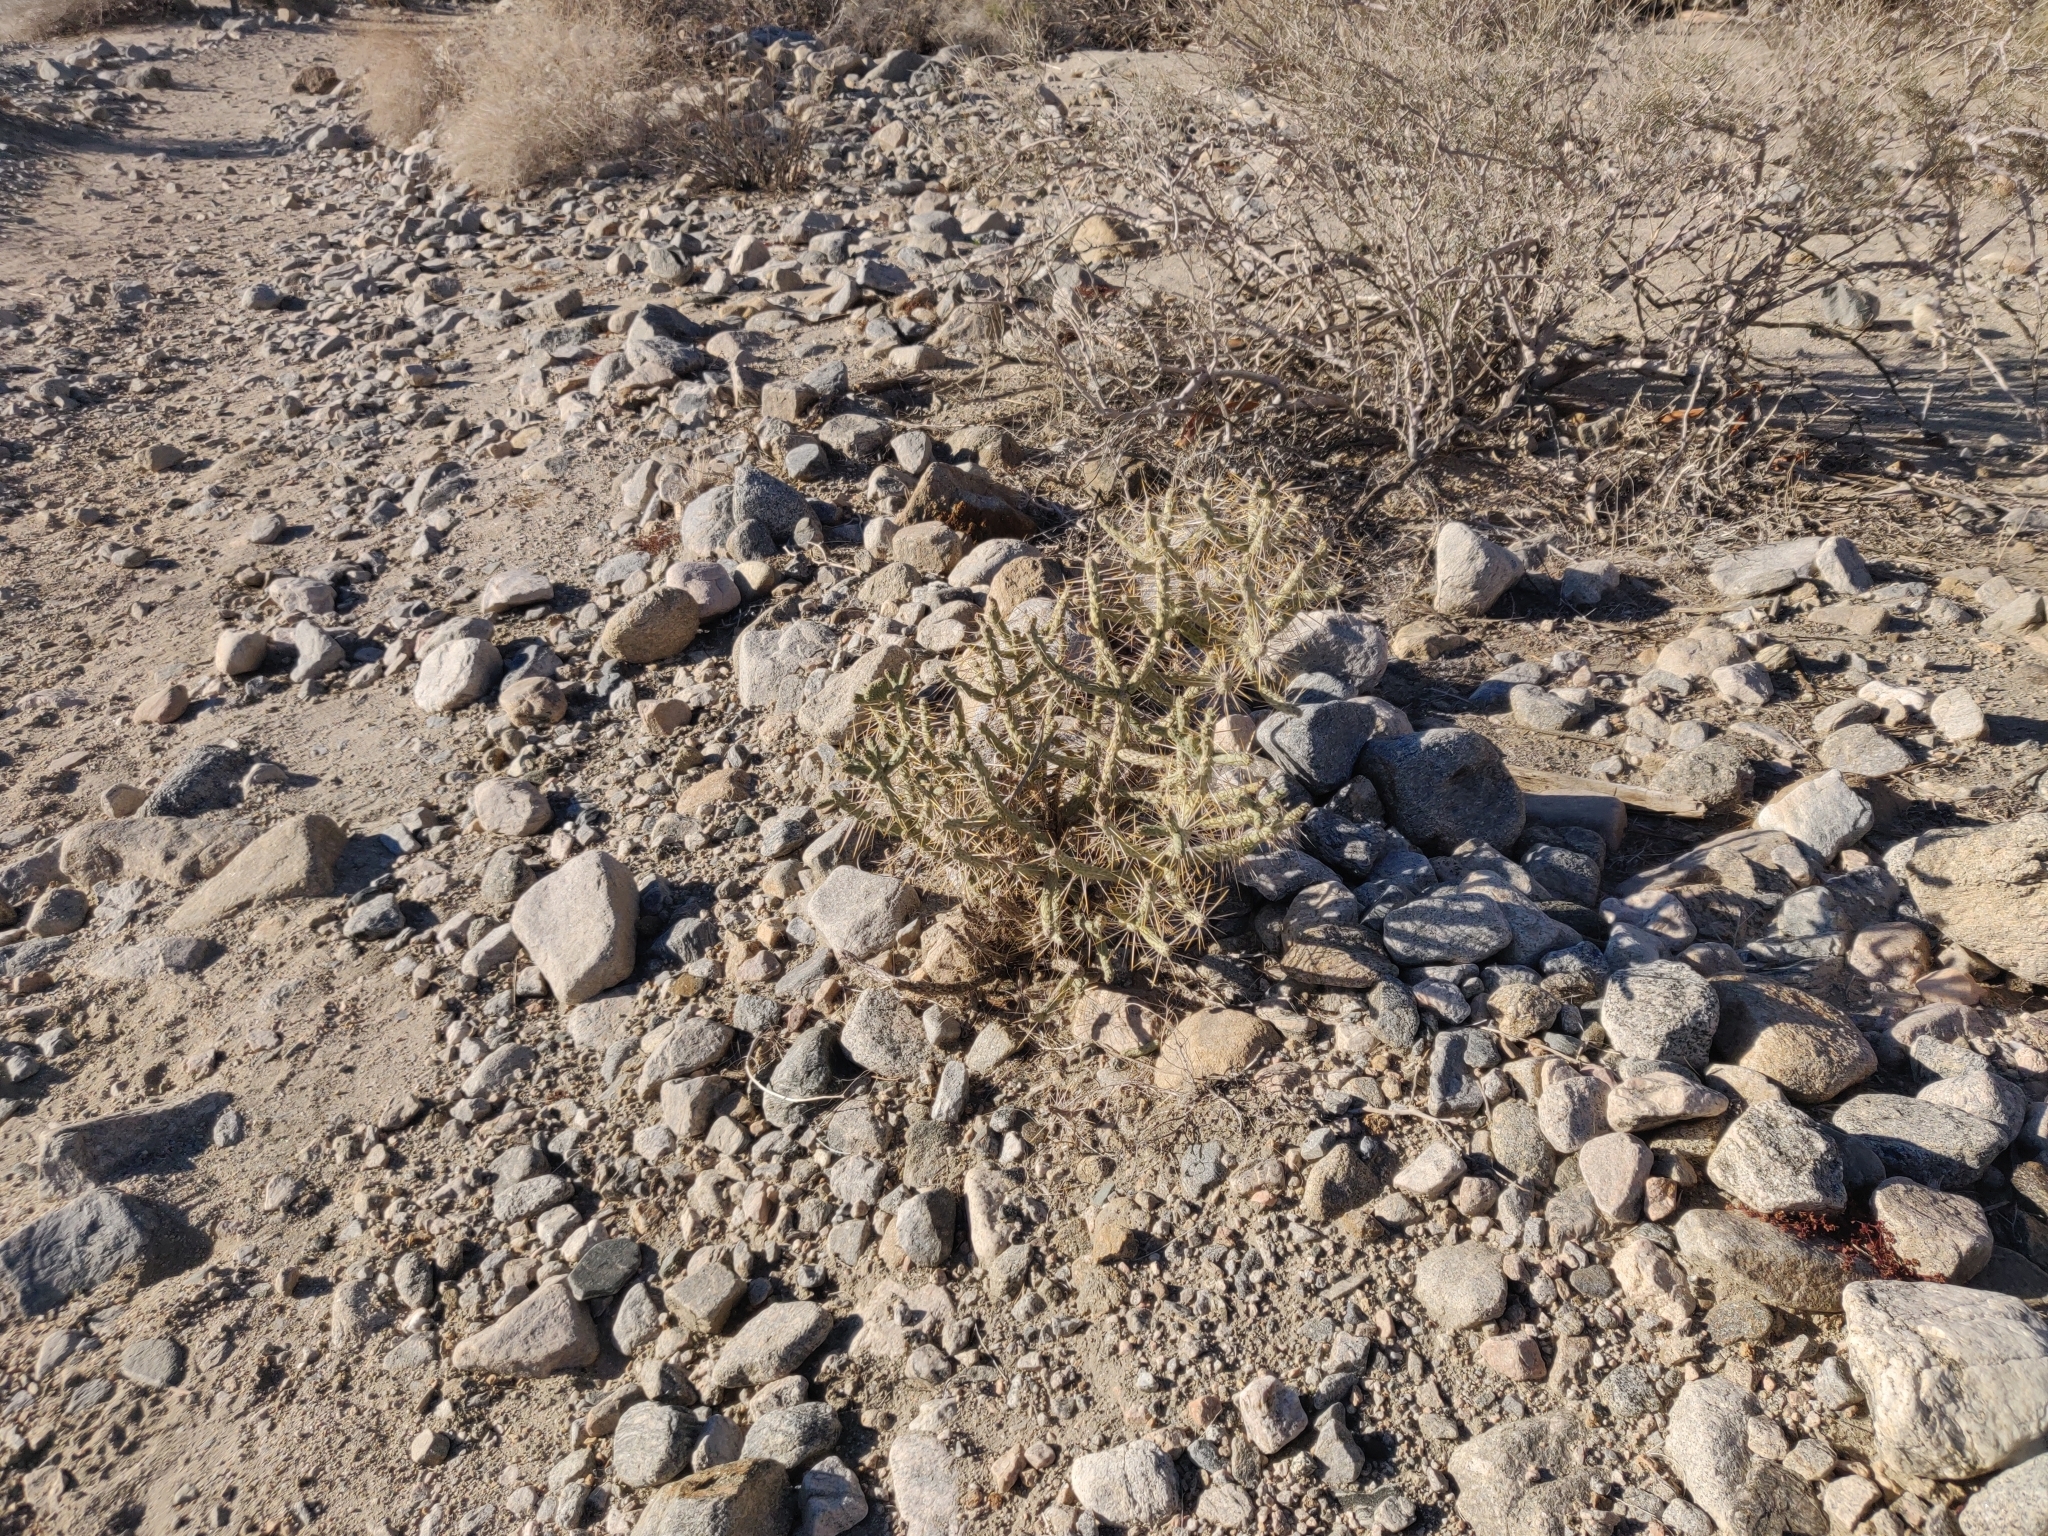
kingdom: Plantae
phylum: Tracheophyta
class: Magnoliopsida
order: Caryophyllales
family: Cactaceae
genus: Cylindropuntia
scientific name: Cylindropuntia ramosissima
